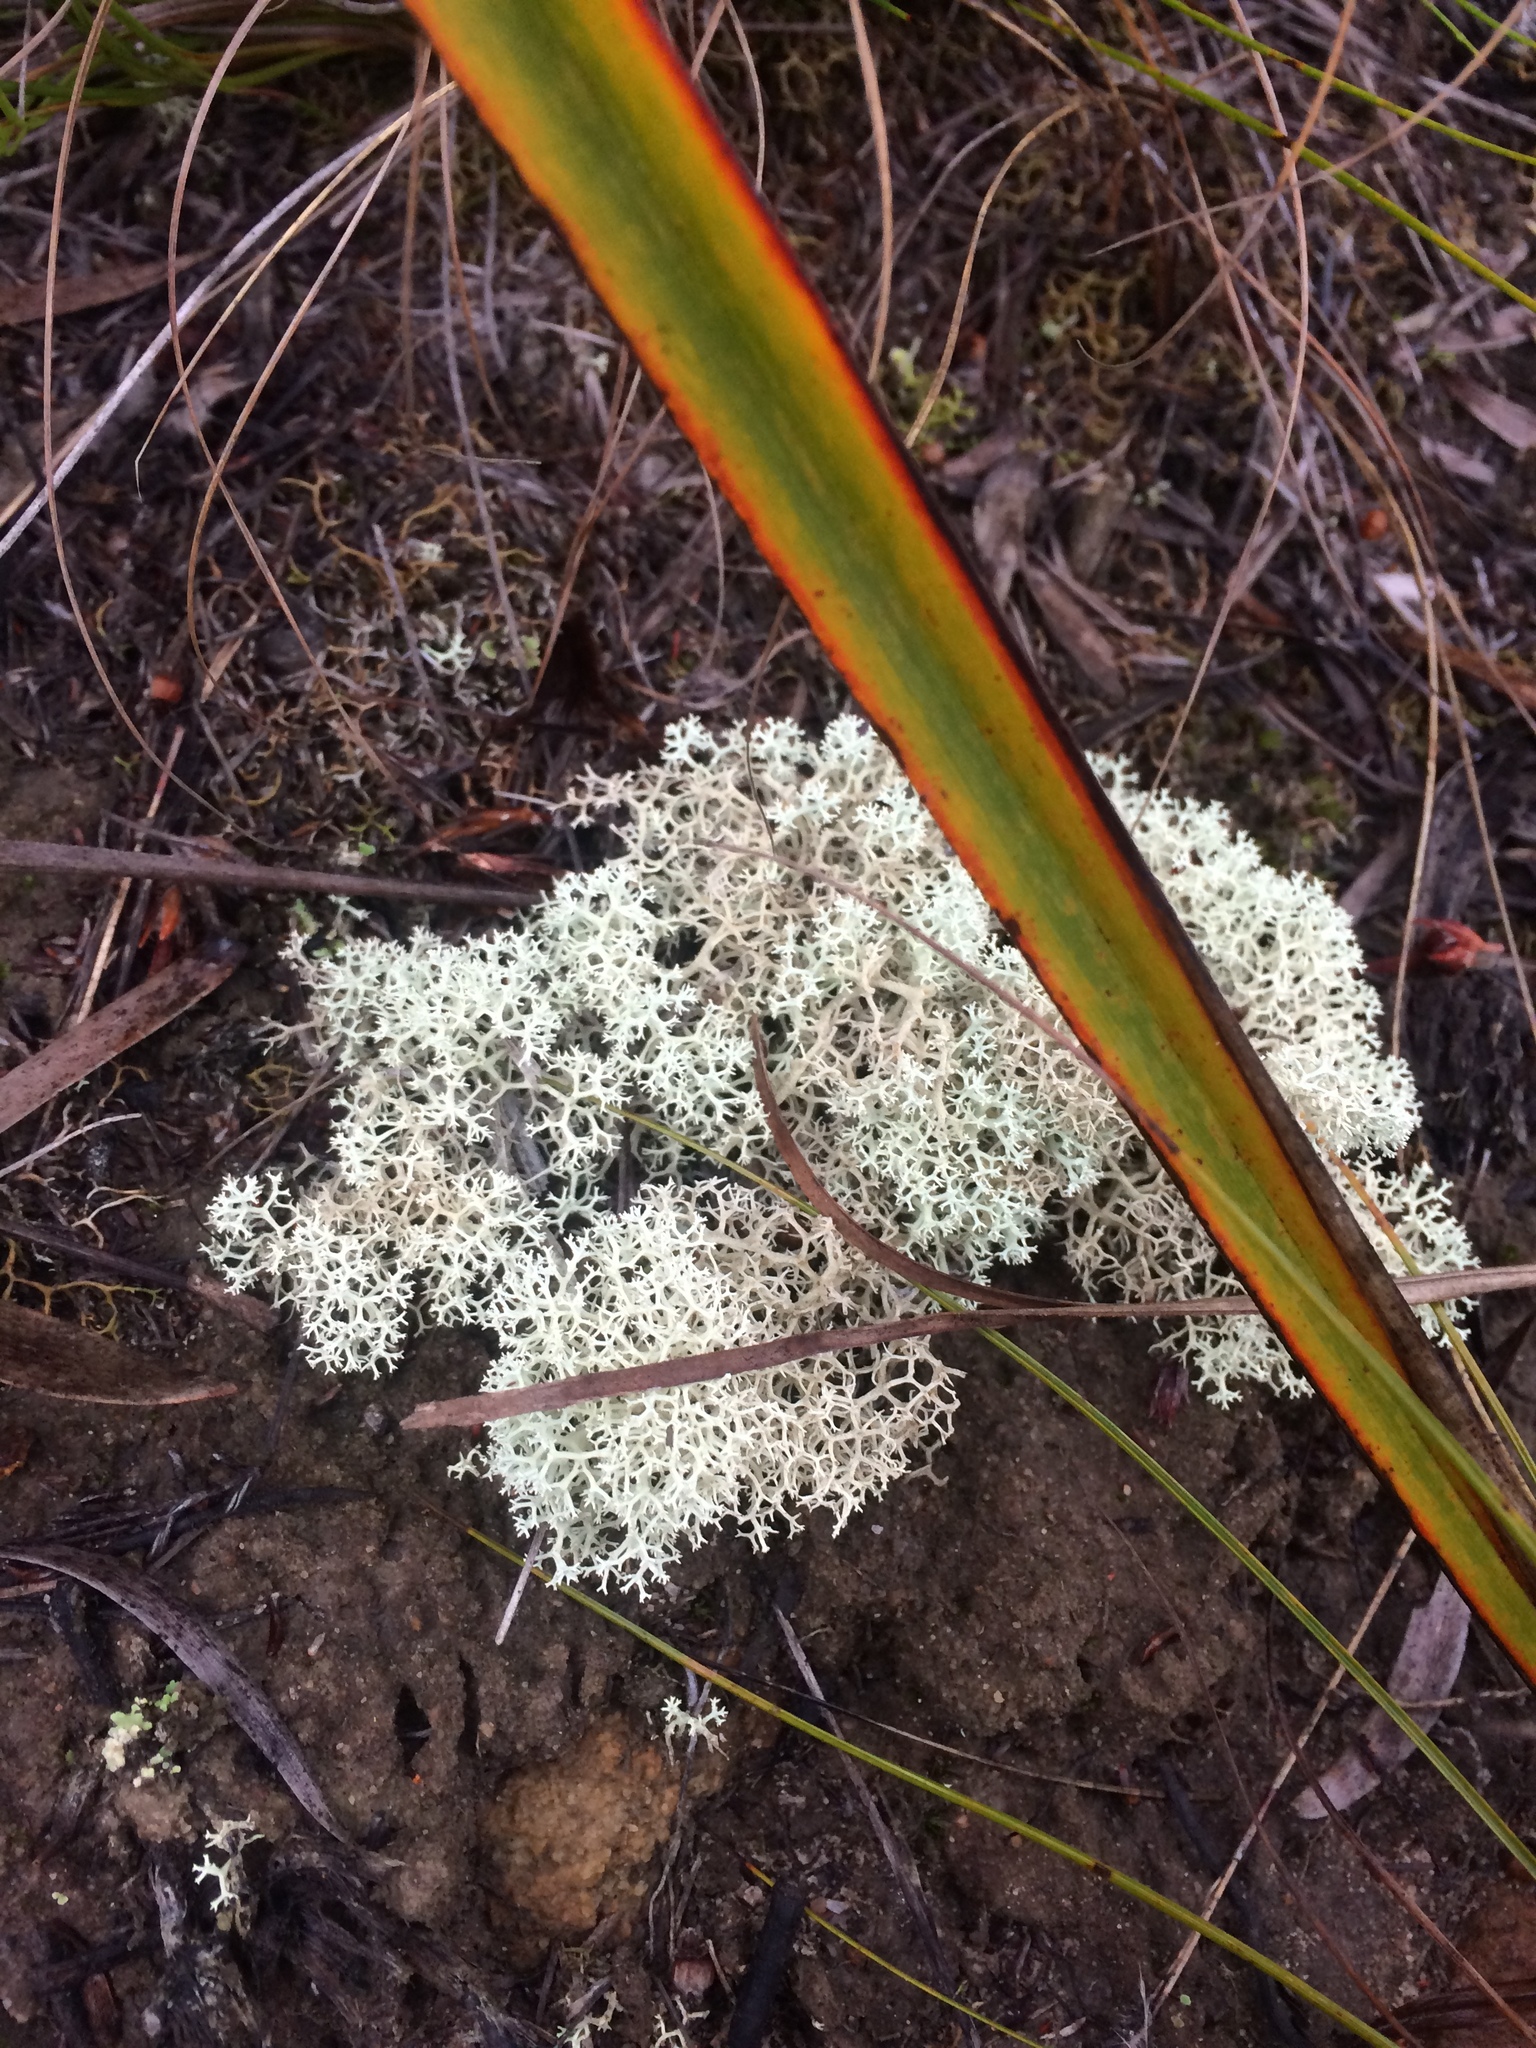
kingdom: Fungi
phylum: Ascomycota
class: Lecanoromycetes
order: Lecanorales
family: Cladoniaceae
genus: Cladonia
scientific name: Cladonia confusa
